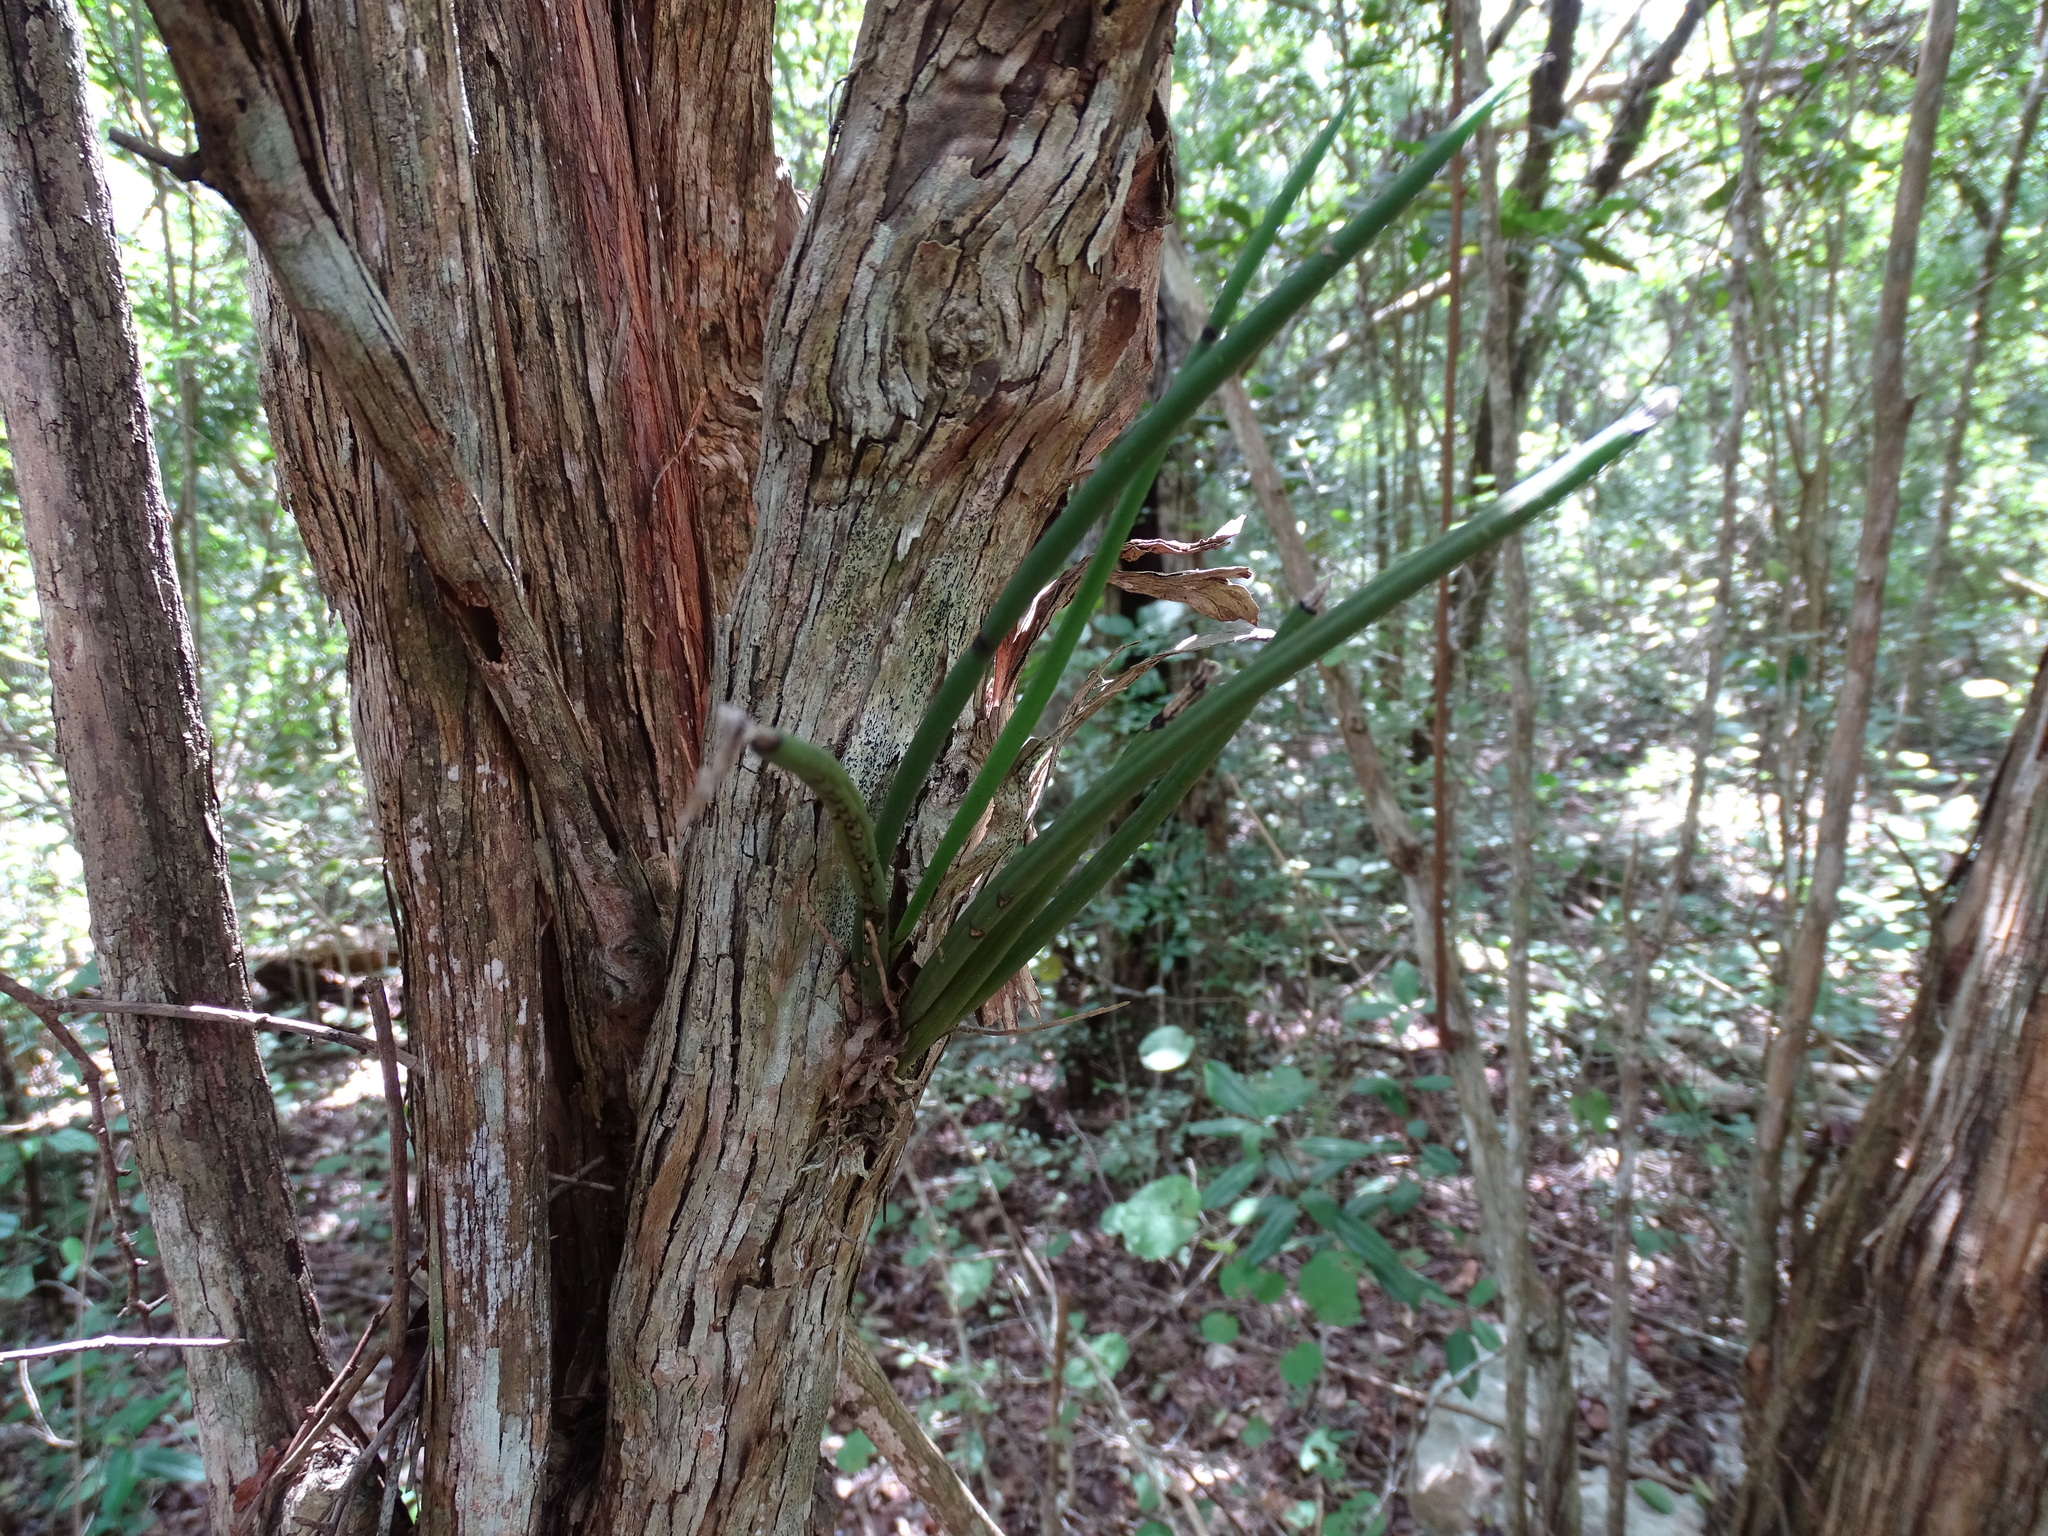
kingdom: Plantae
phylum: Tracheophyta
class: Liliopsida
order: Asparagales
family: Orchidaceae
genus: Trichocentrum
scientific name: Trichocentrum yucatanense
